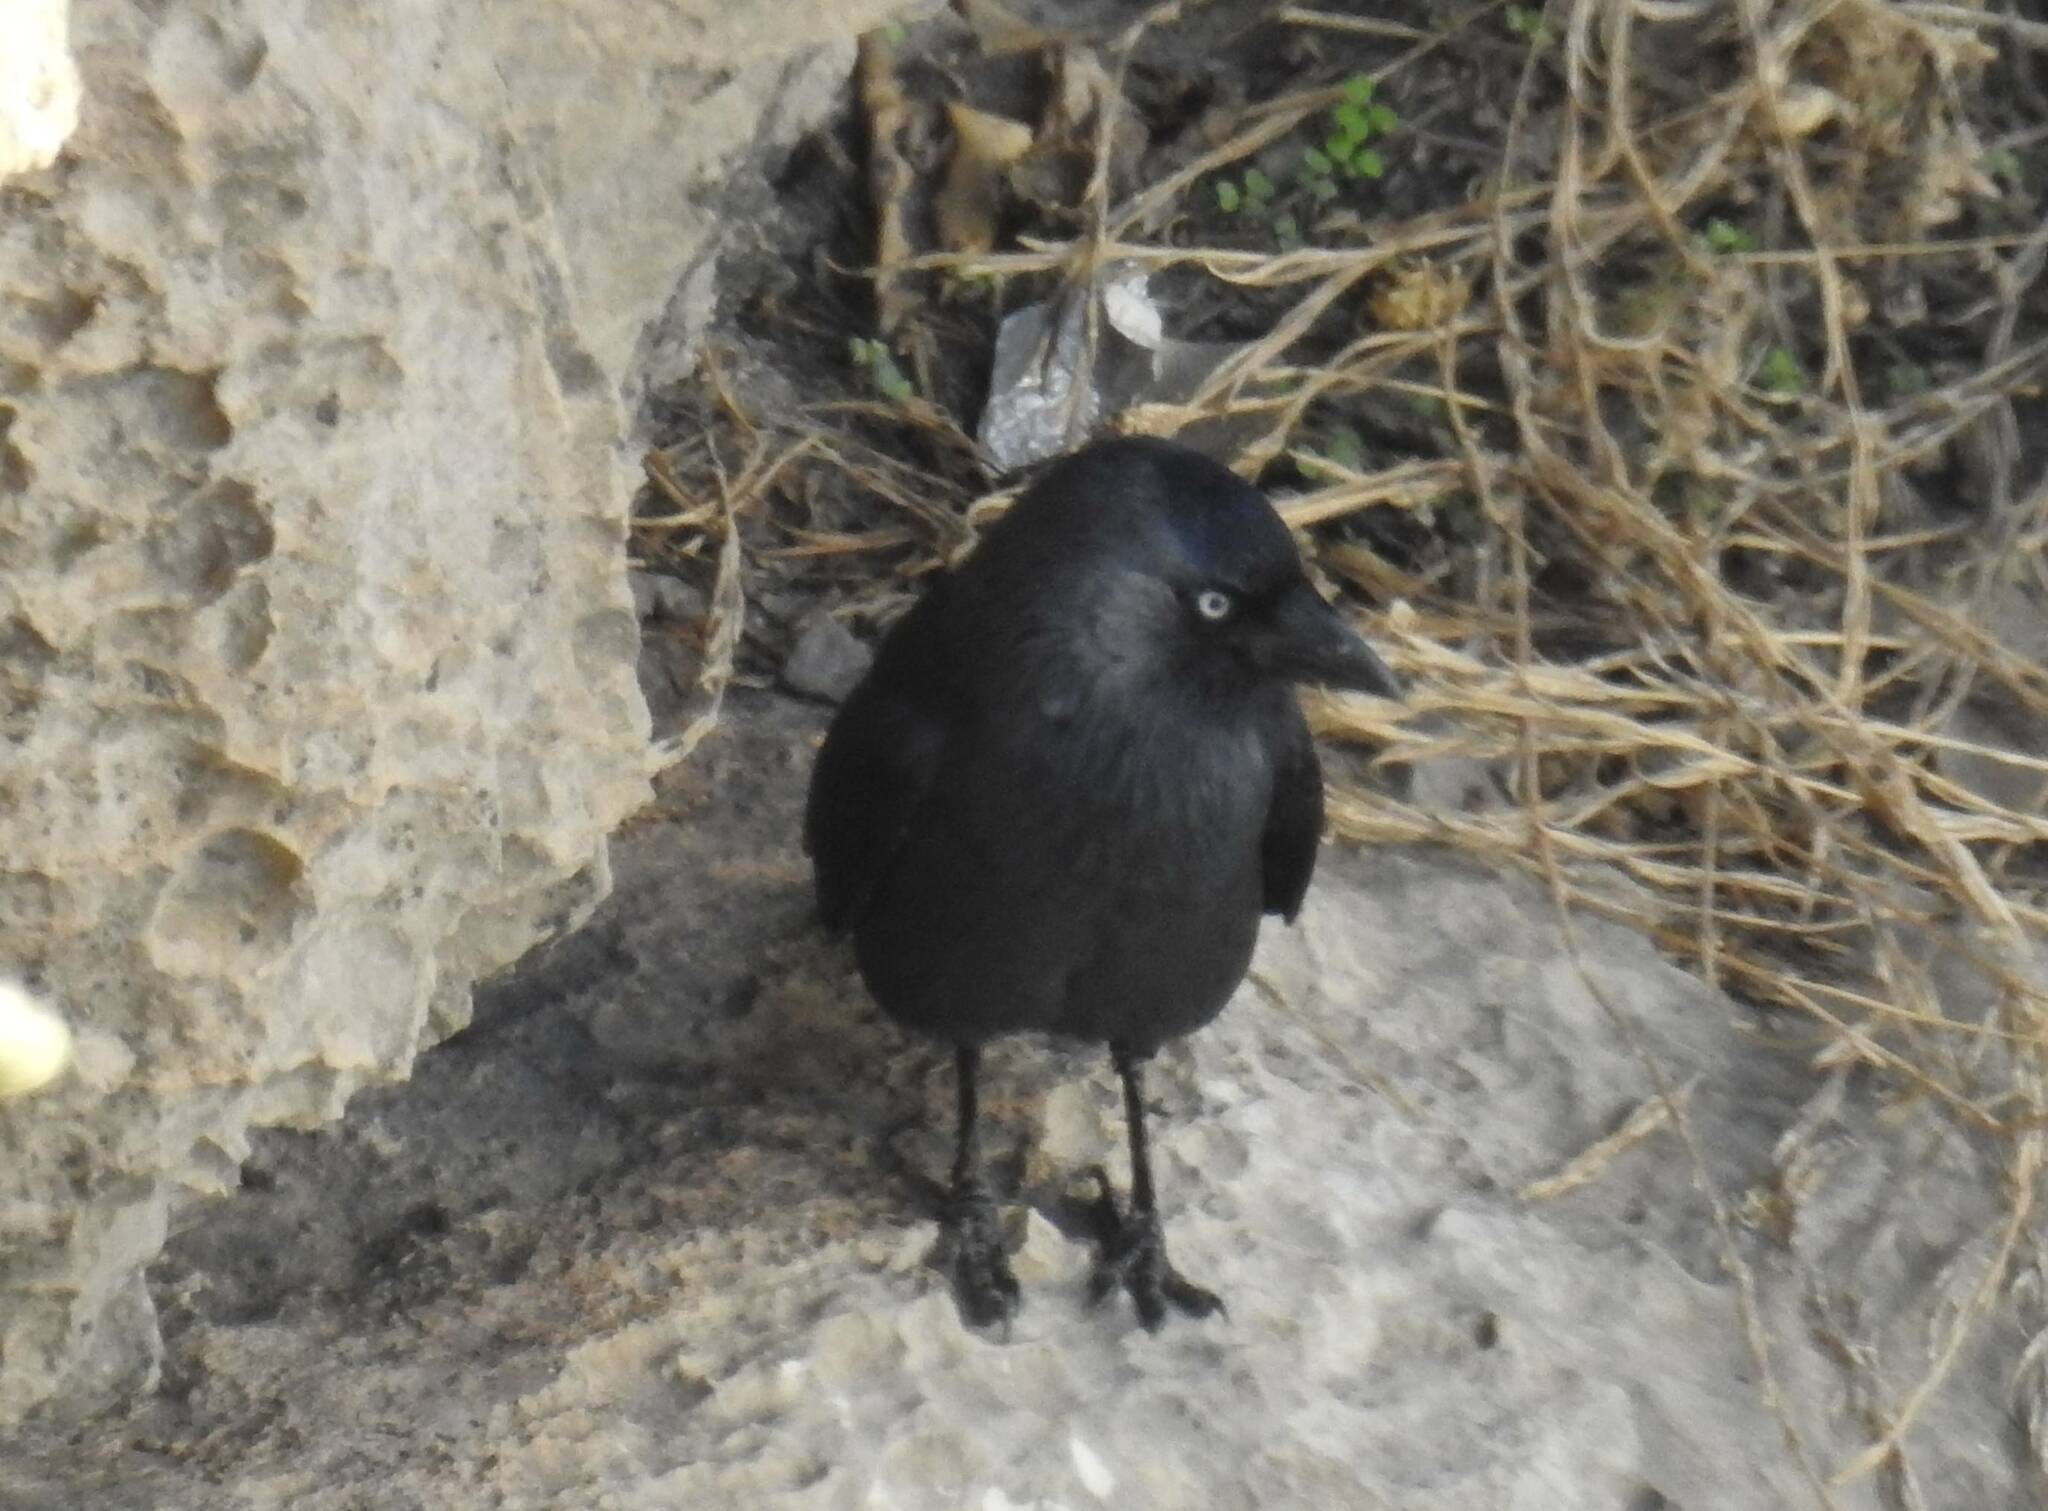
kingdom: Animalia
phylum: Chordata
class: Aves
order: Passeriformes
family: Corvidae
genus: Coloeus
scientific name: Coloeus monedula
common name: Western jackdaw
